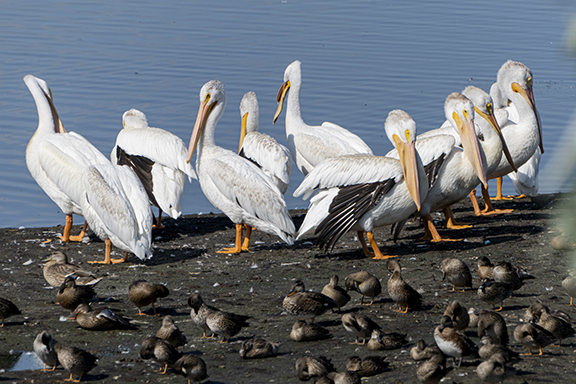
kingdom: Animalia
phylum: Chordata
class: Aves
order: Pelecaniformes
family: Pelecanidae
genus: Pelecanus
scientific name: Pelecanus erythrorhynchos
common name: American white pelican
